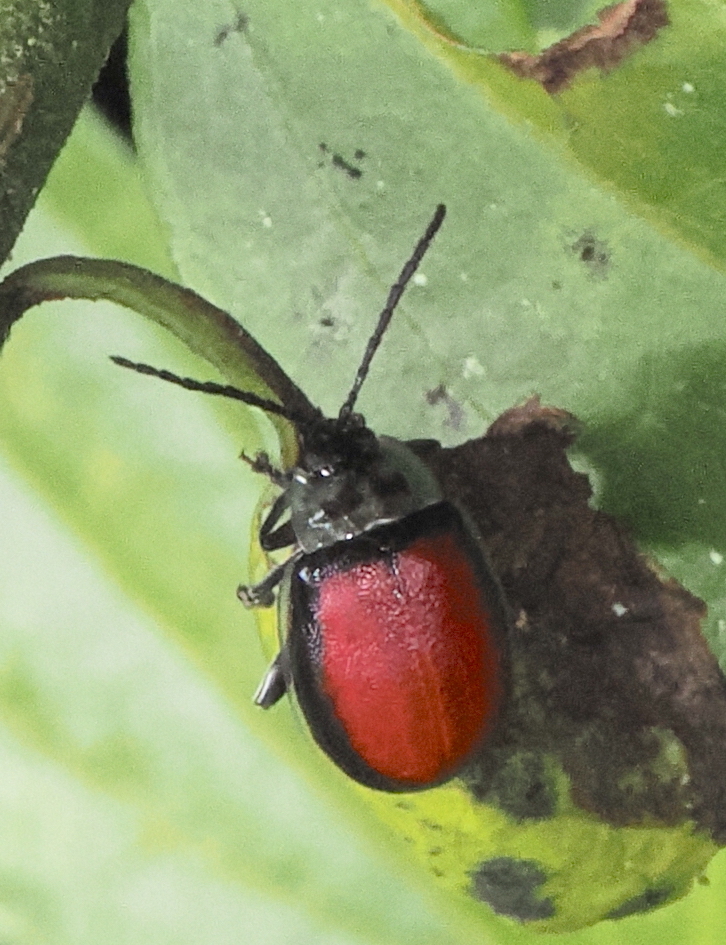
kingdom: Animalia
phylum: Arthropoda
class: Insecta
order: Coleoptera
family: Chrysomelidae
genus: Aspicela
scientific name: Aspicela
